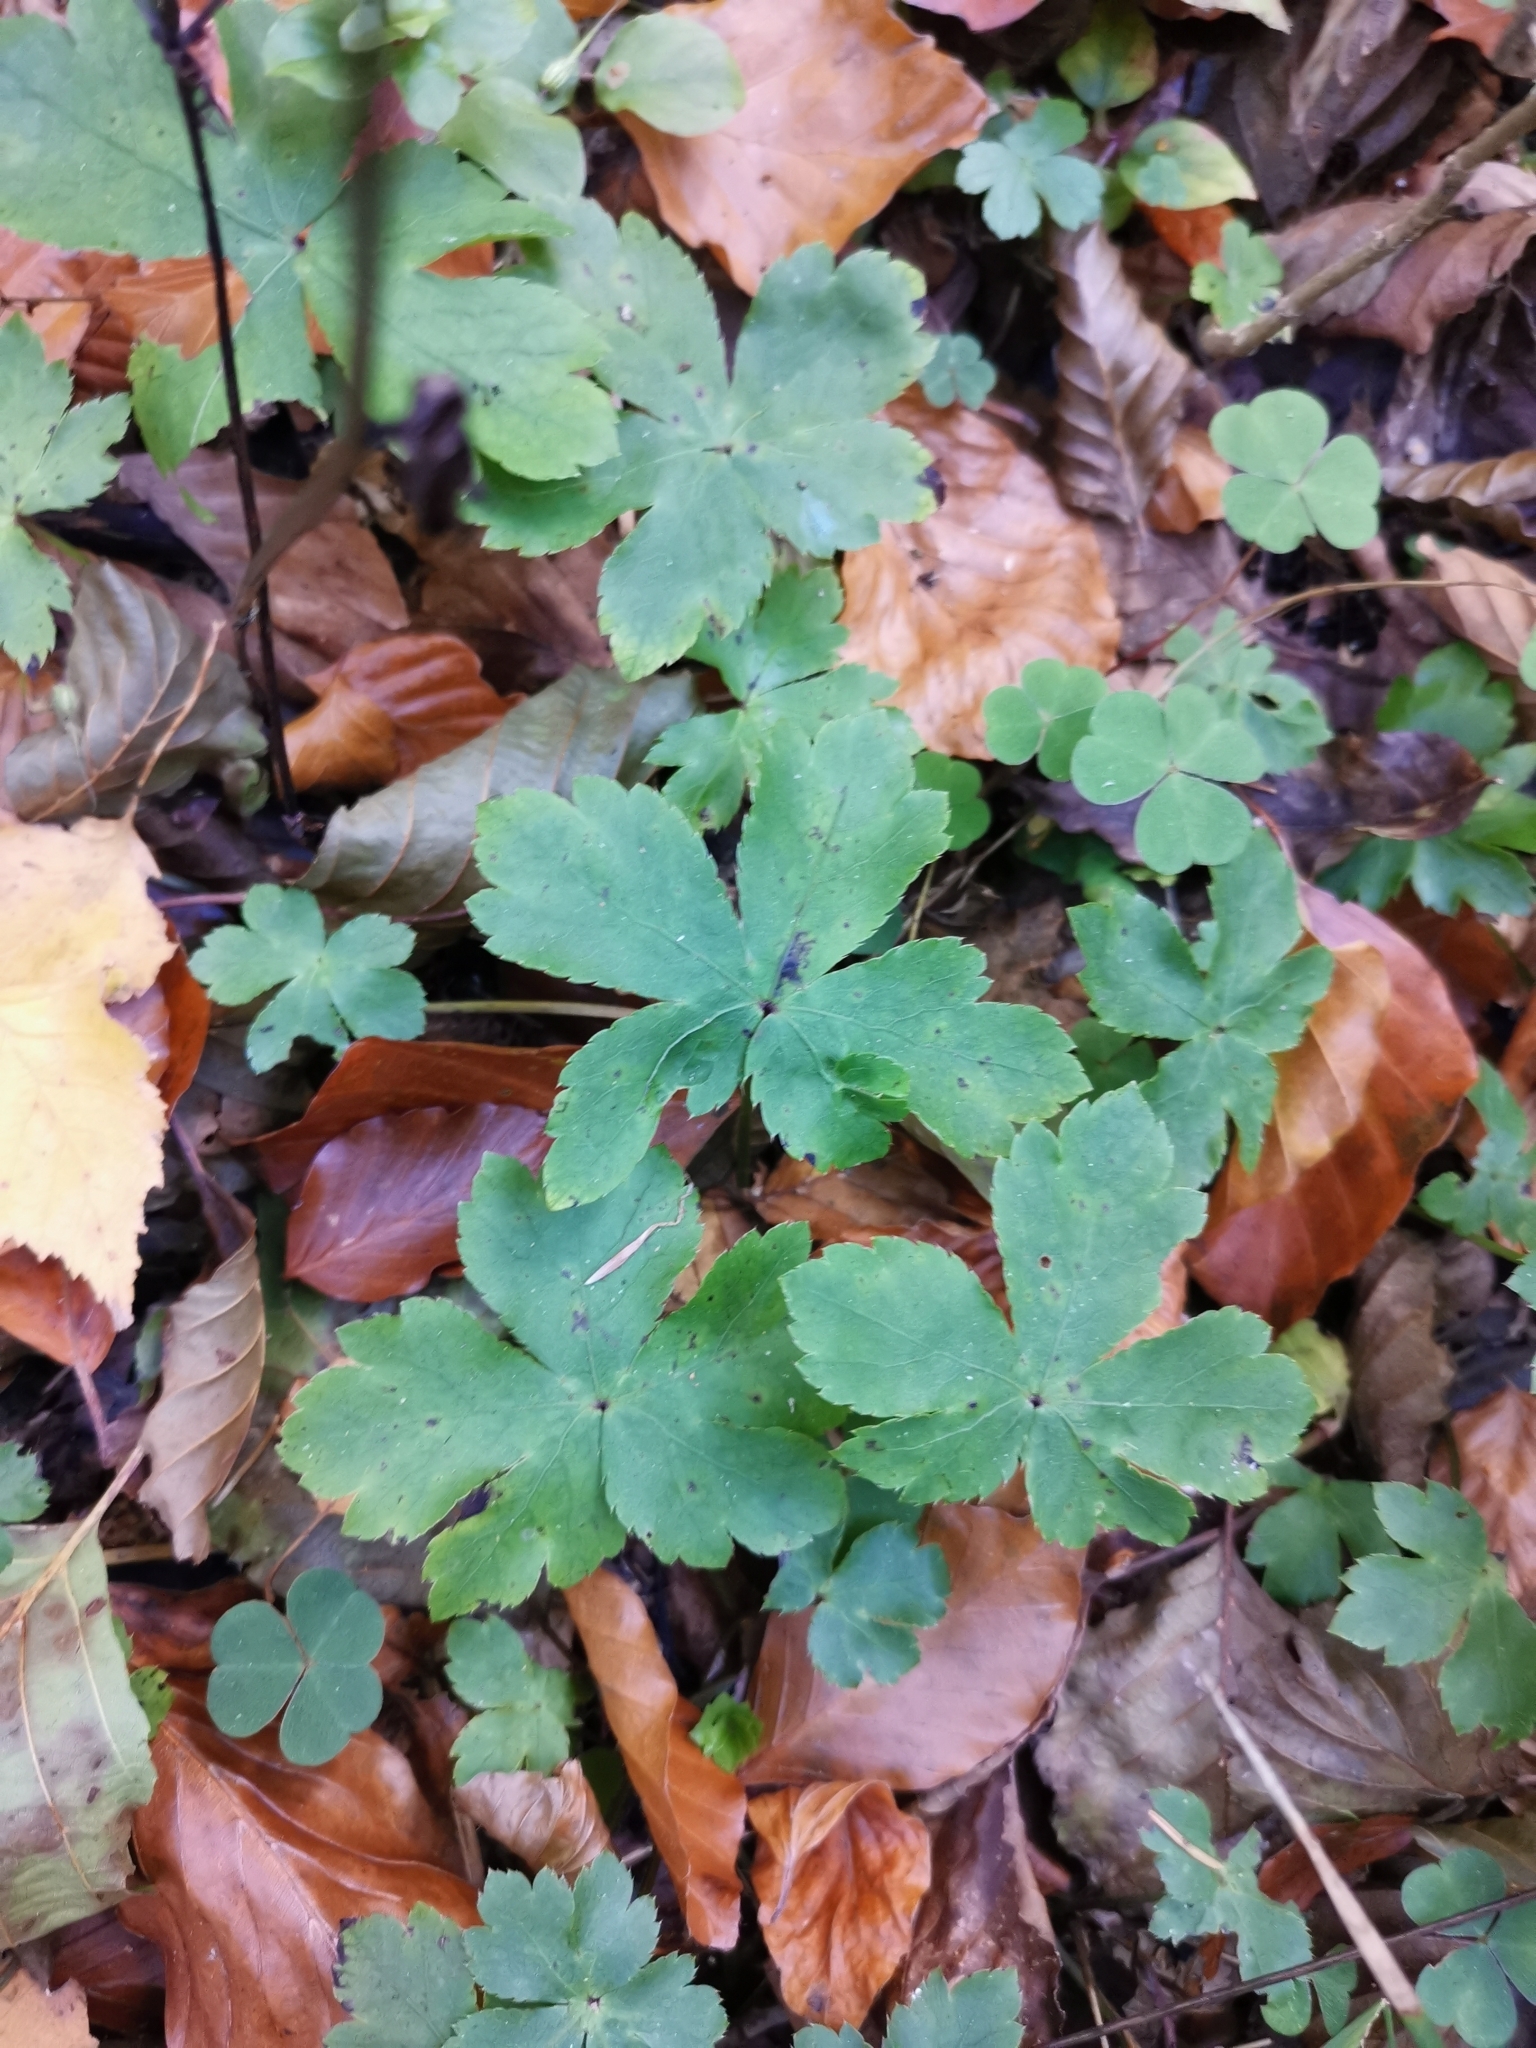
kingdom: Plantae
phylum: Tracheophyta
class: Magnoliopsida
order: Apiales
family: Apiaceae
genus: Sanicula
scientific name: Sanicula europaea
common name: Sanicle
